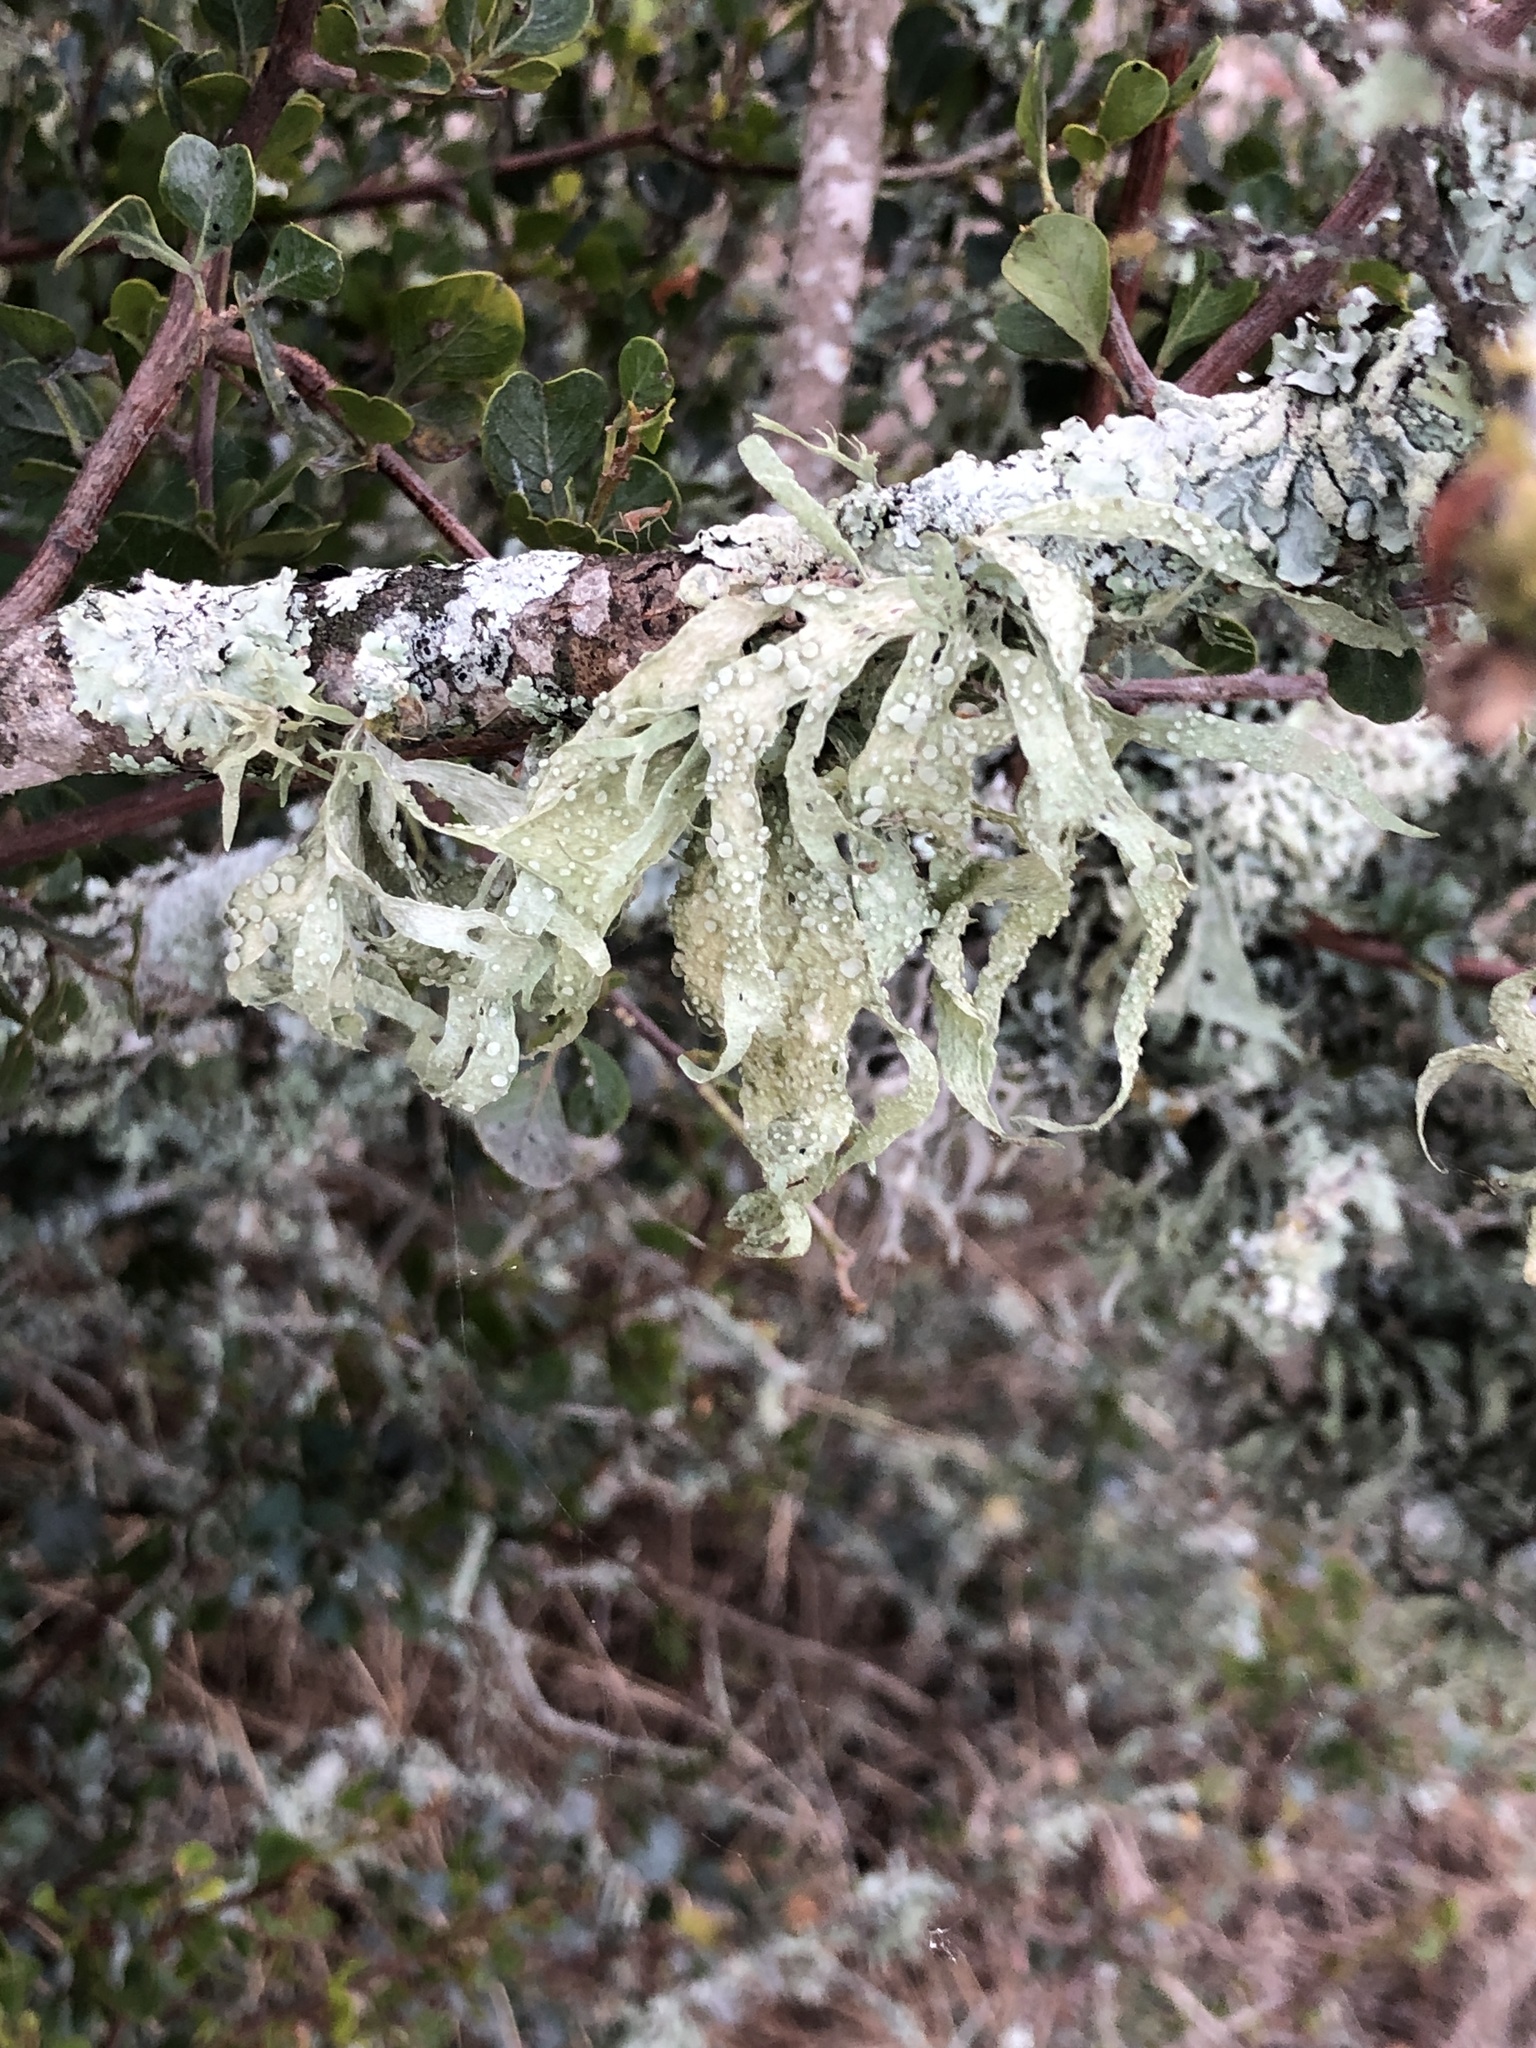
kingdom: Fungi
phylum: Ascomycota
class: Lecanoromycetes
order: Lecanorales
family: Ramalinaceae
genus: Ramalina
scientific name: Ramalina celastri
